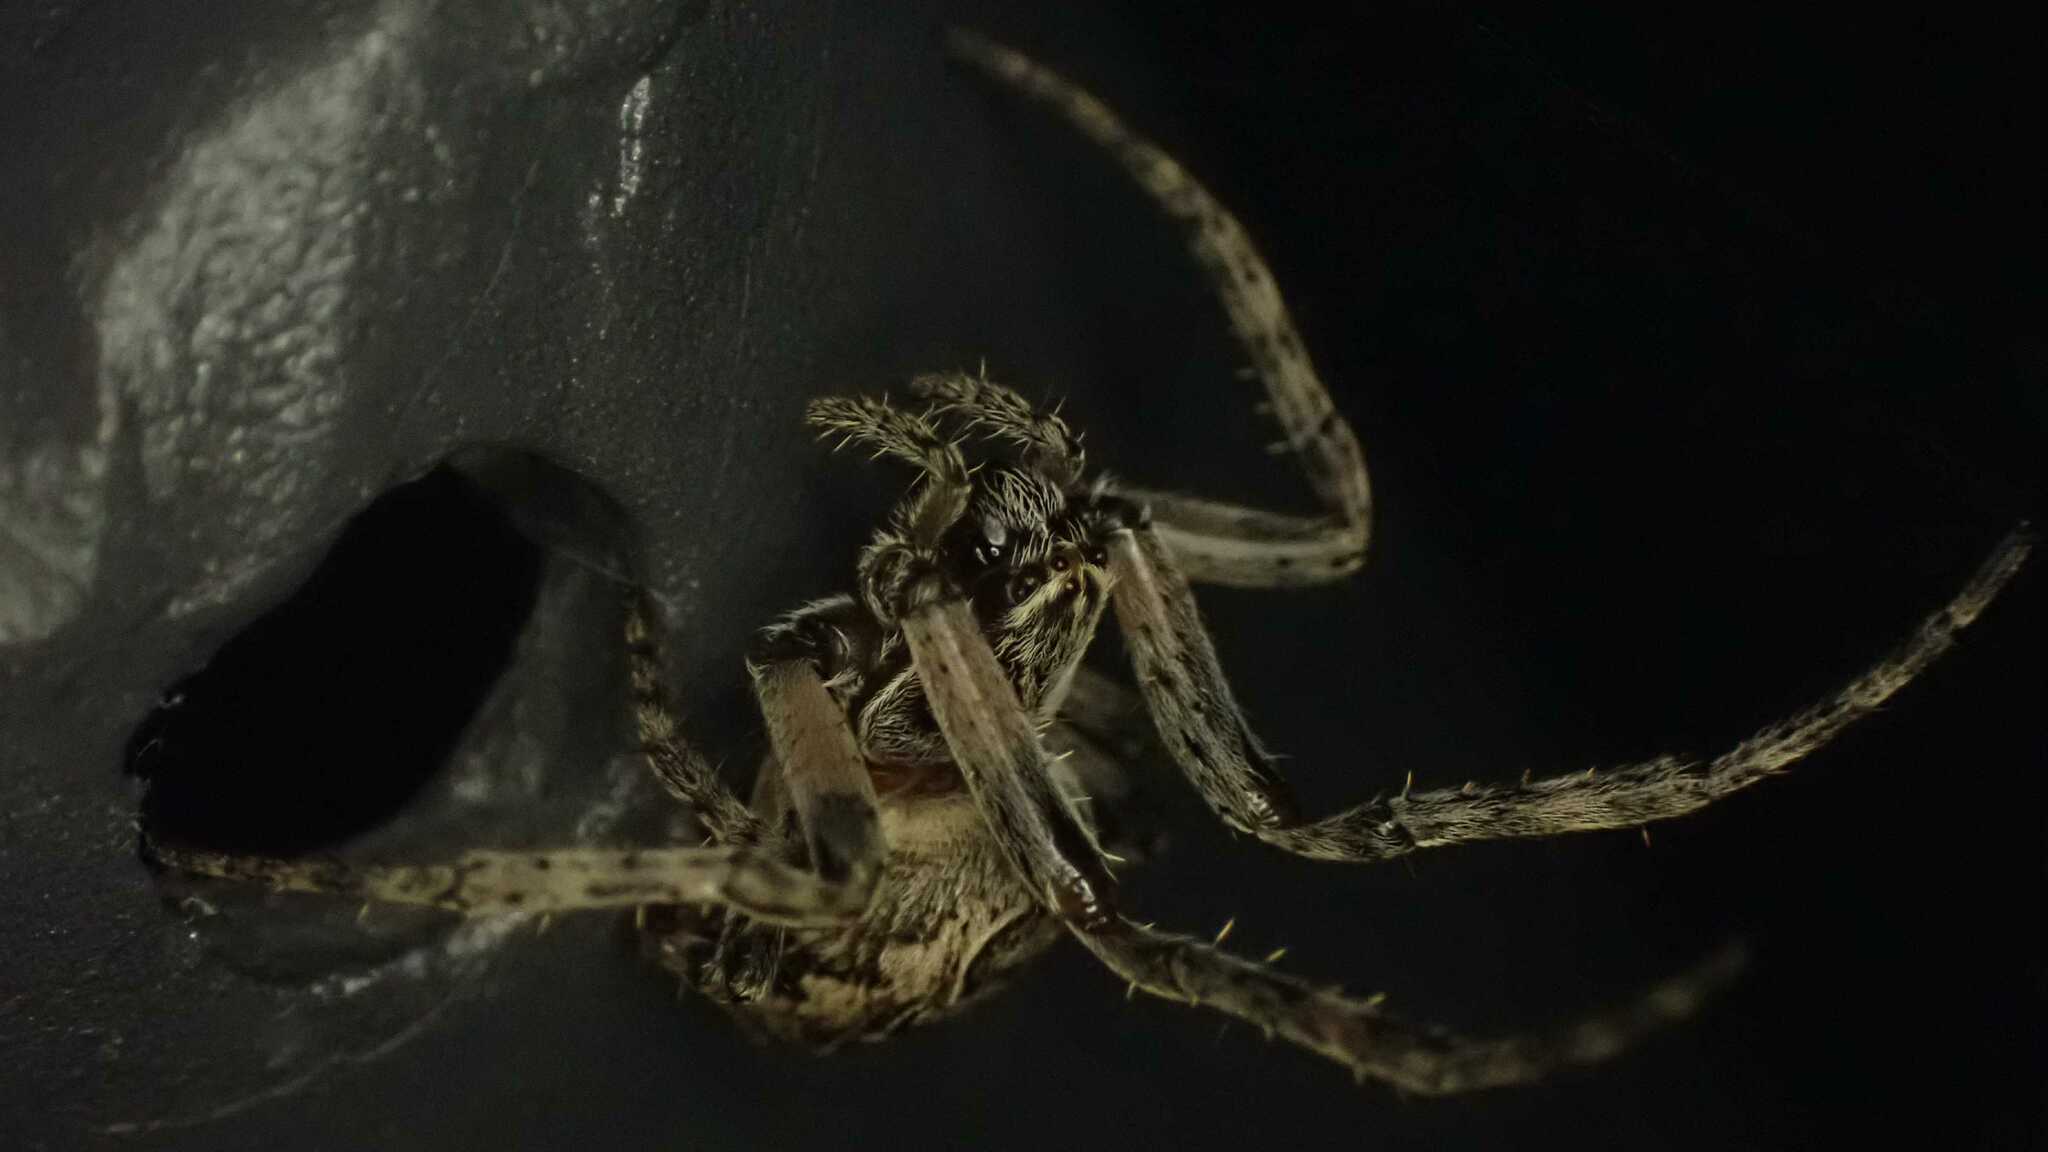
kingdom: Animalia
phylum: Arthropoda
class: Arachnida
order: Araneae
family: Araneidae
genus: Larinioides
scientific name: Larinioides sclopetarius
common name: Bridge orbweaver
